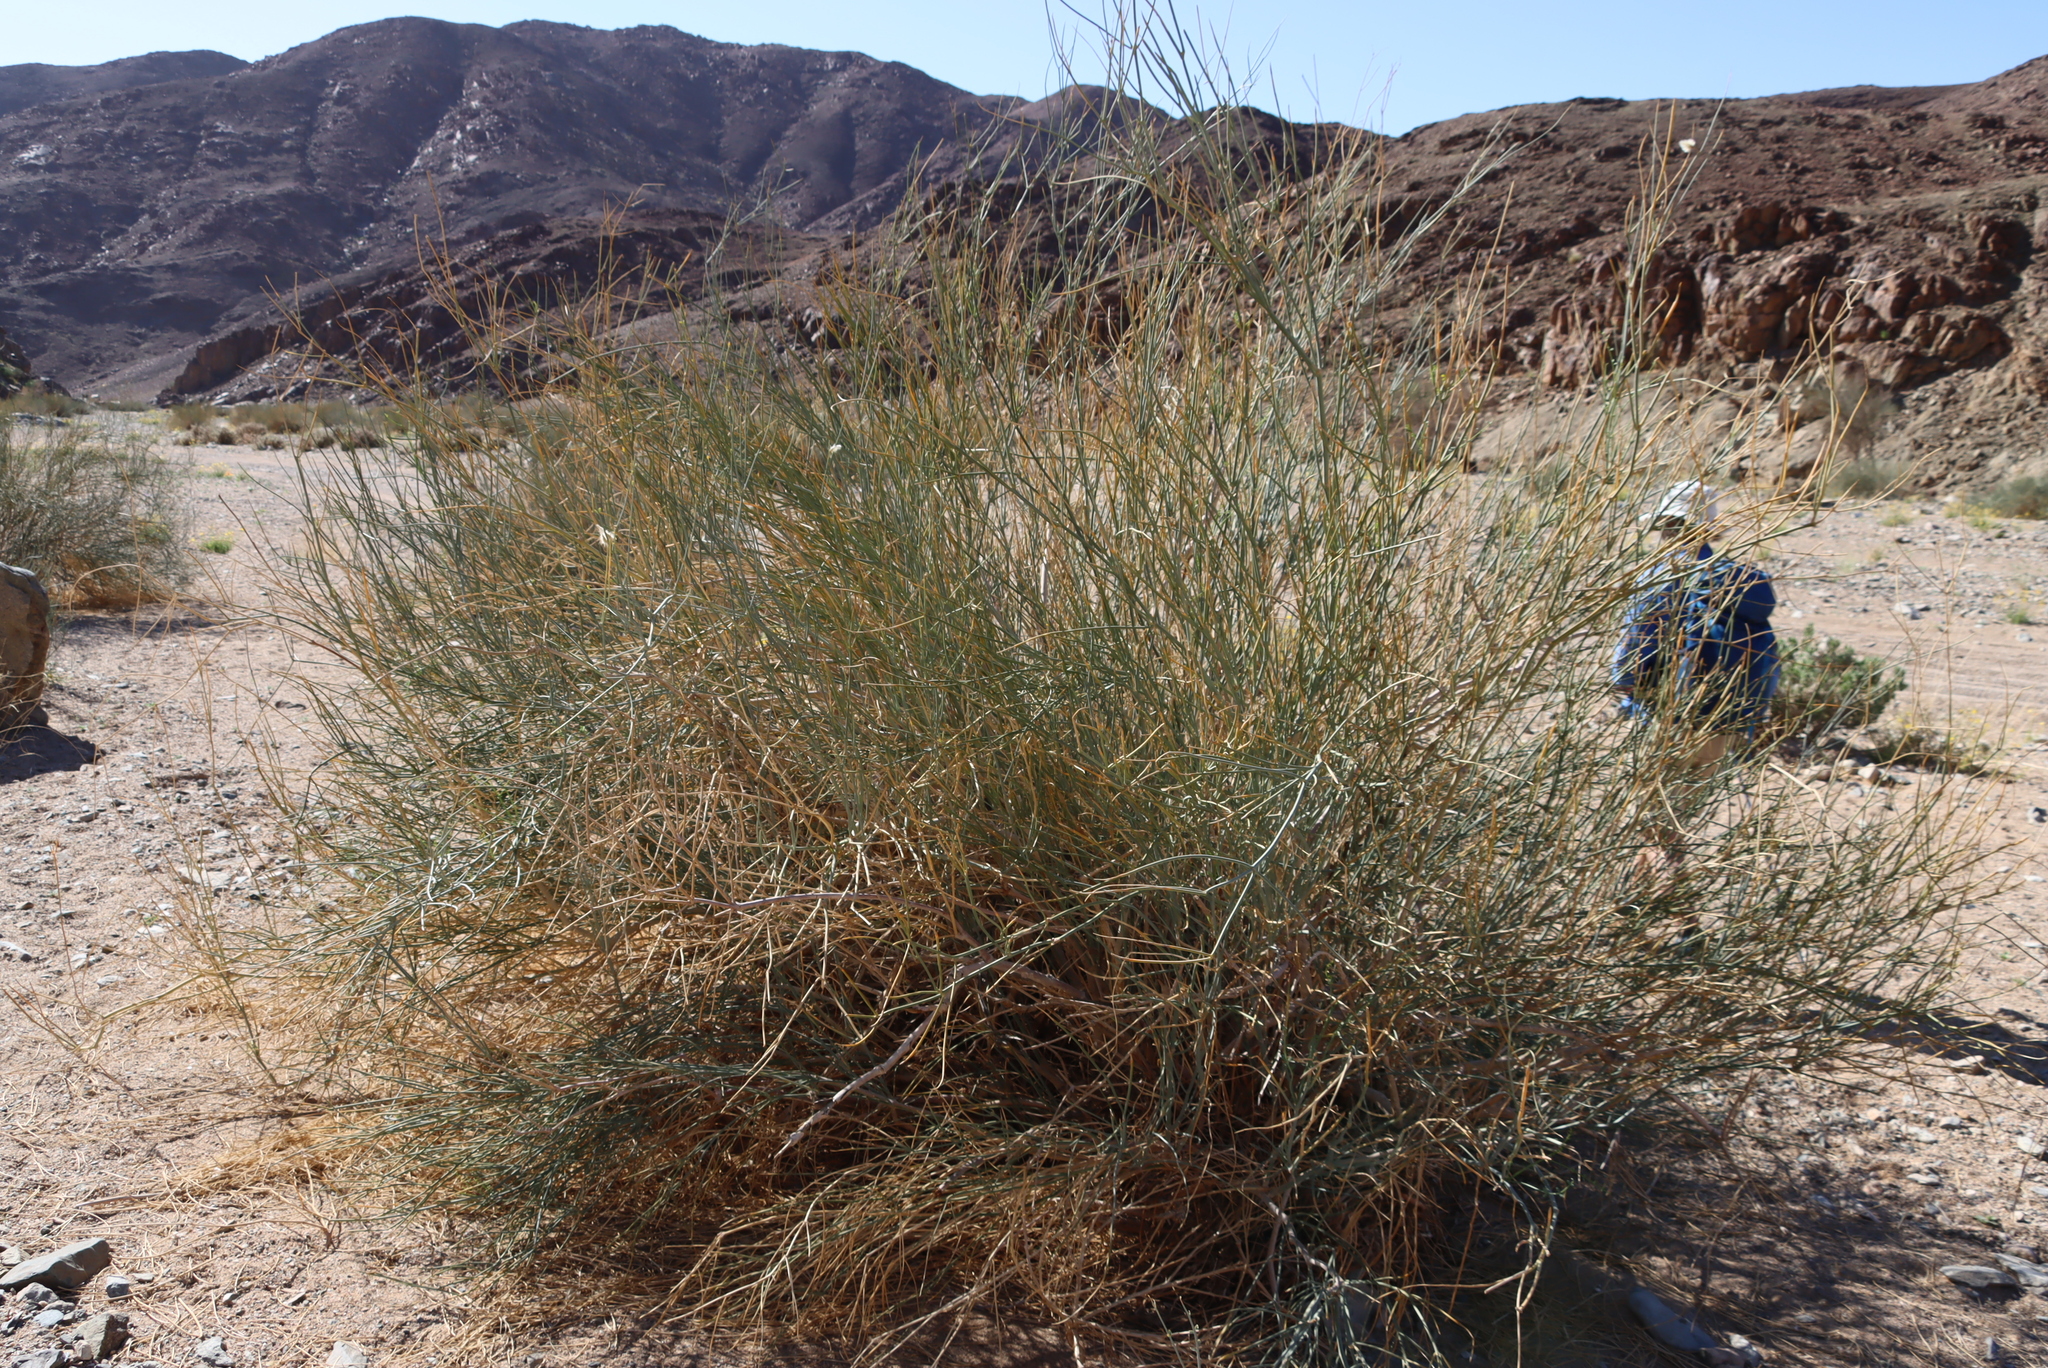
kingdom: Plantae
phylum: Tracheophyta
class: Magnoliopsida
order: Zygophyllales
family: Zygophyllaceae
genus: Sisyndite
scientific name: Sisyndite spartea
